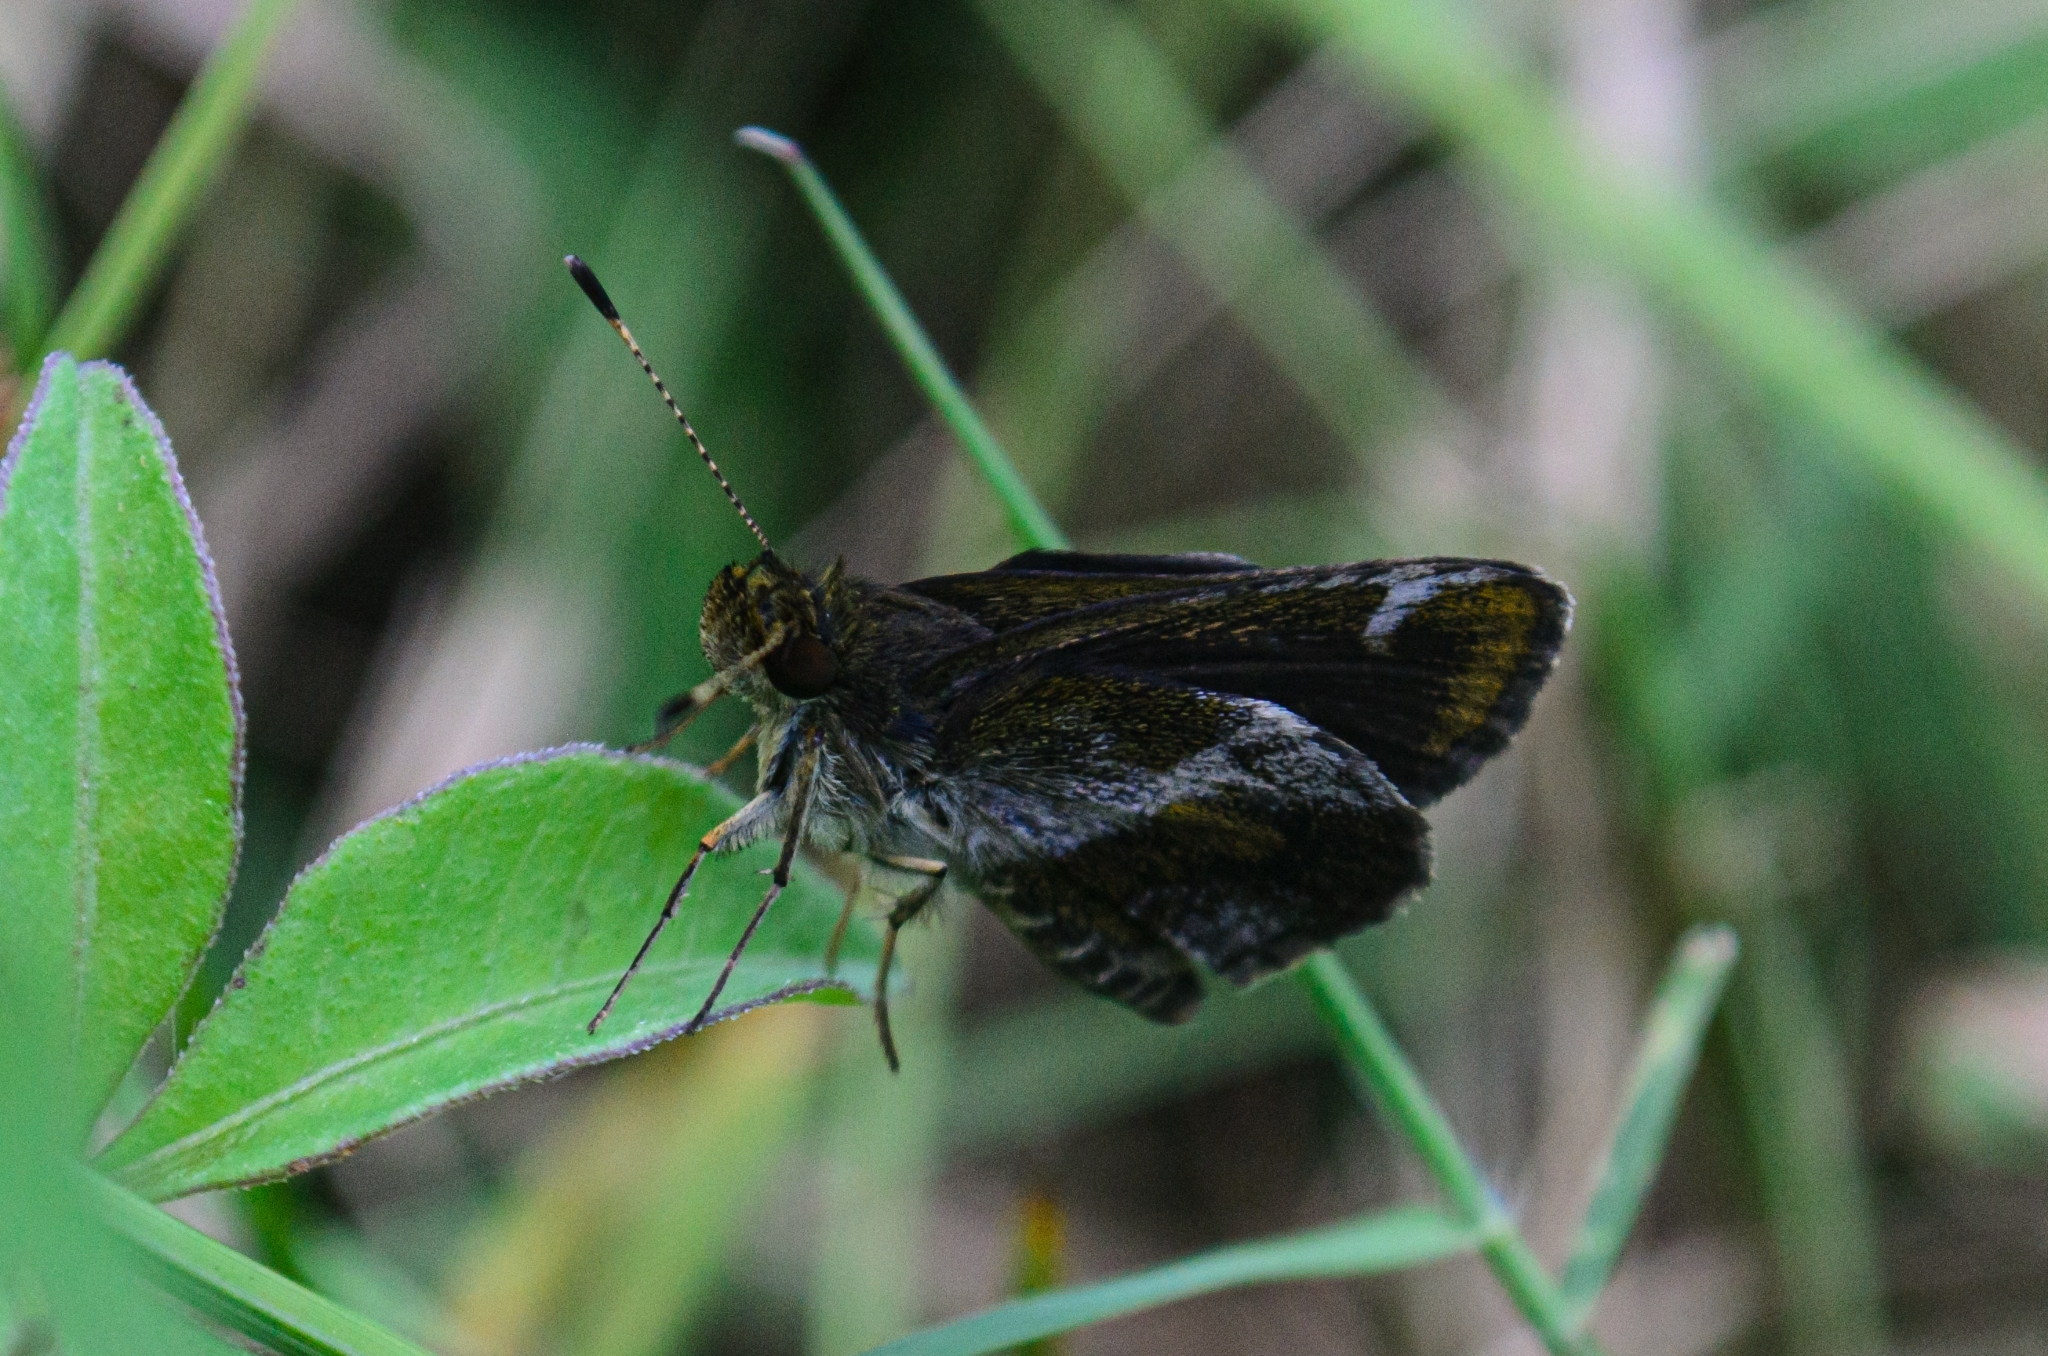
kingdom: Animalia
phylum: Arthropoda
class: Insecta
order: Lepidoptera
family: Hesperiidae
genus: Callimormus
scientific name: Callimormus
